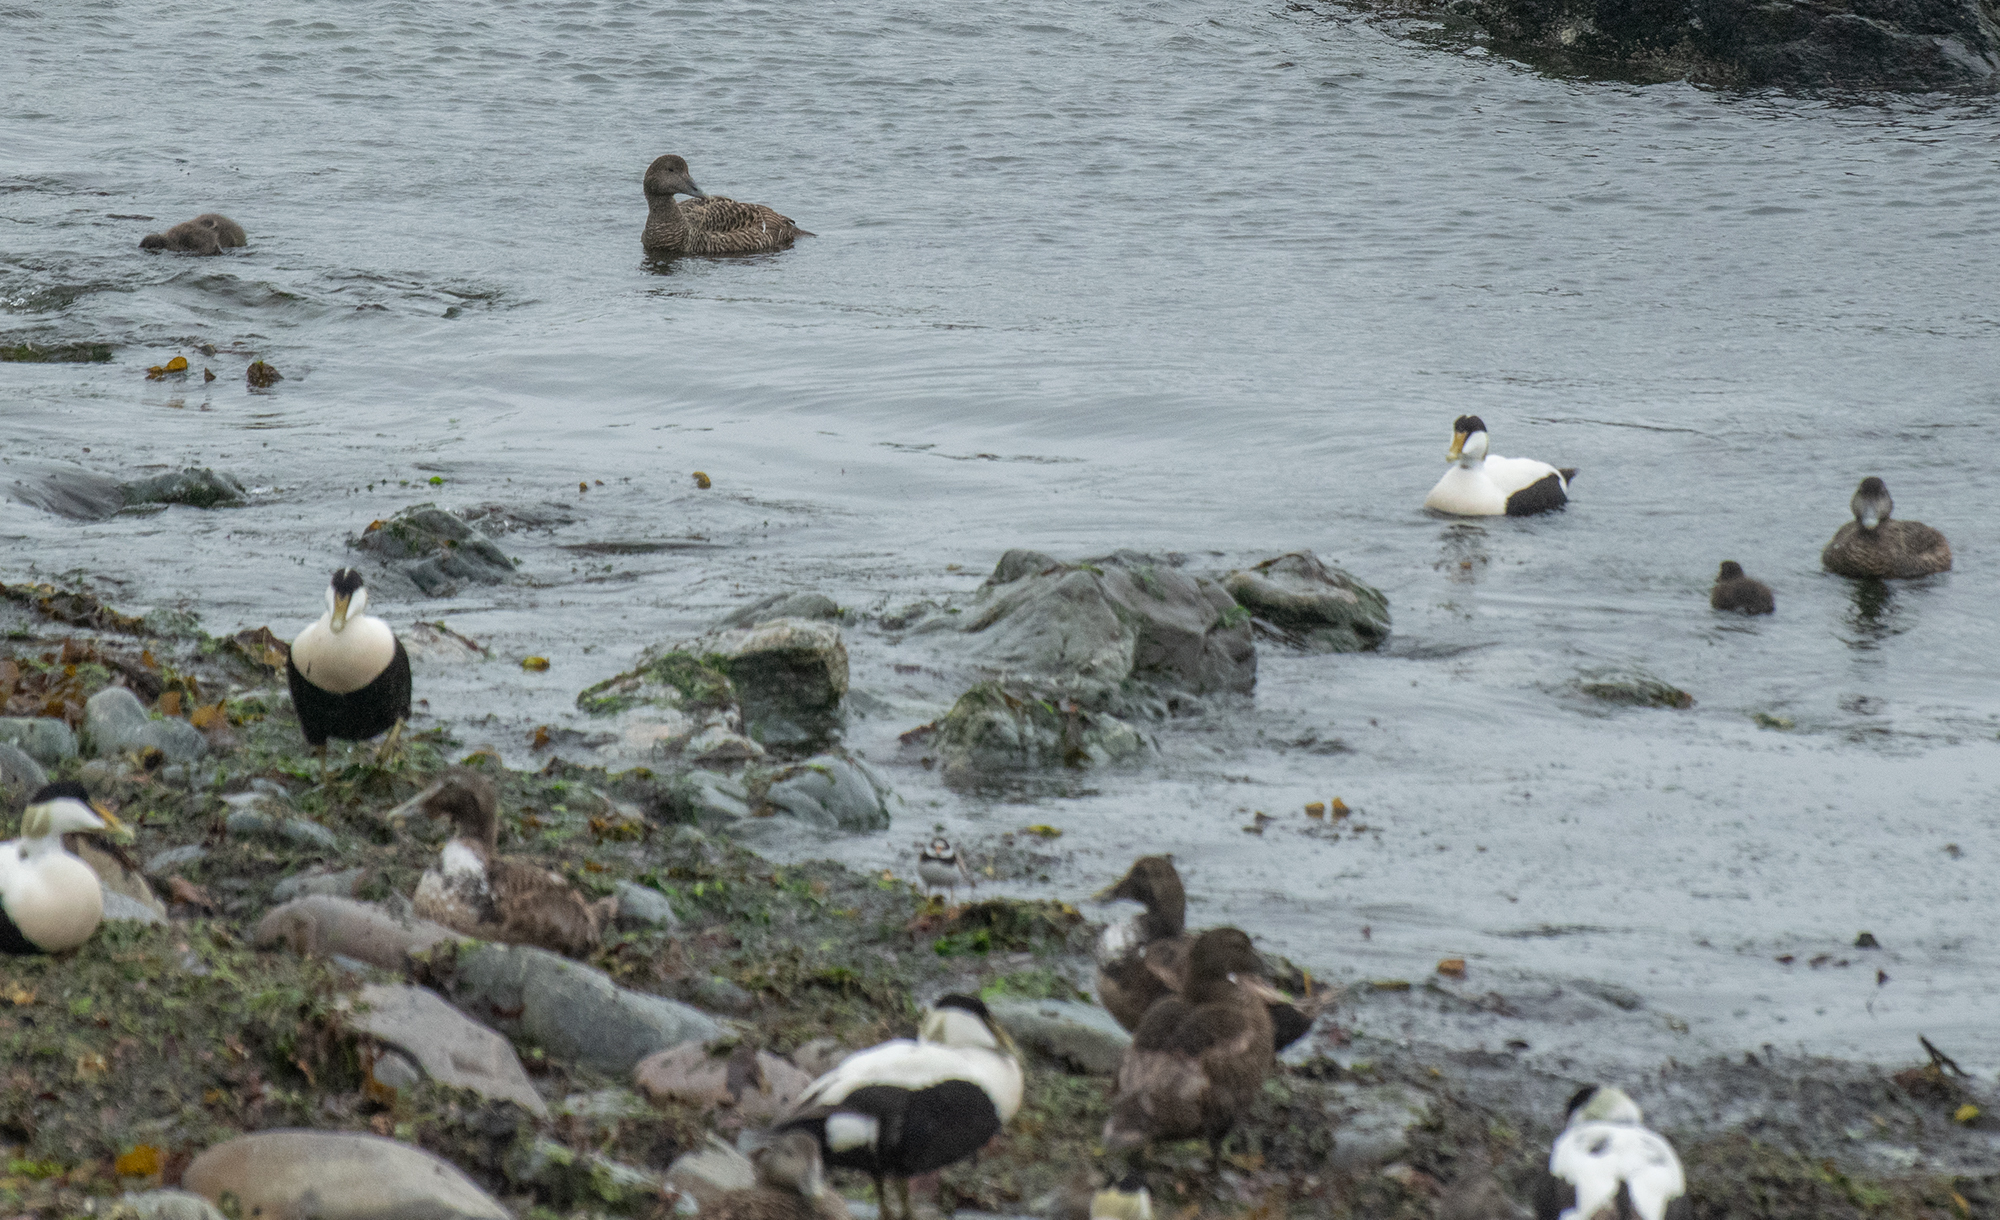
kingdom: Animalia
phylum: Chordata
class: Aves
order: Anseriformes
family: Anatidae
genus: Somateria
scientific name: Somateria mollissima
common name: Common eider
